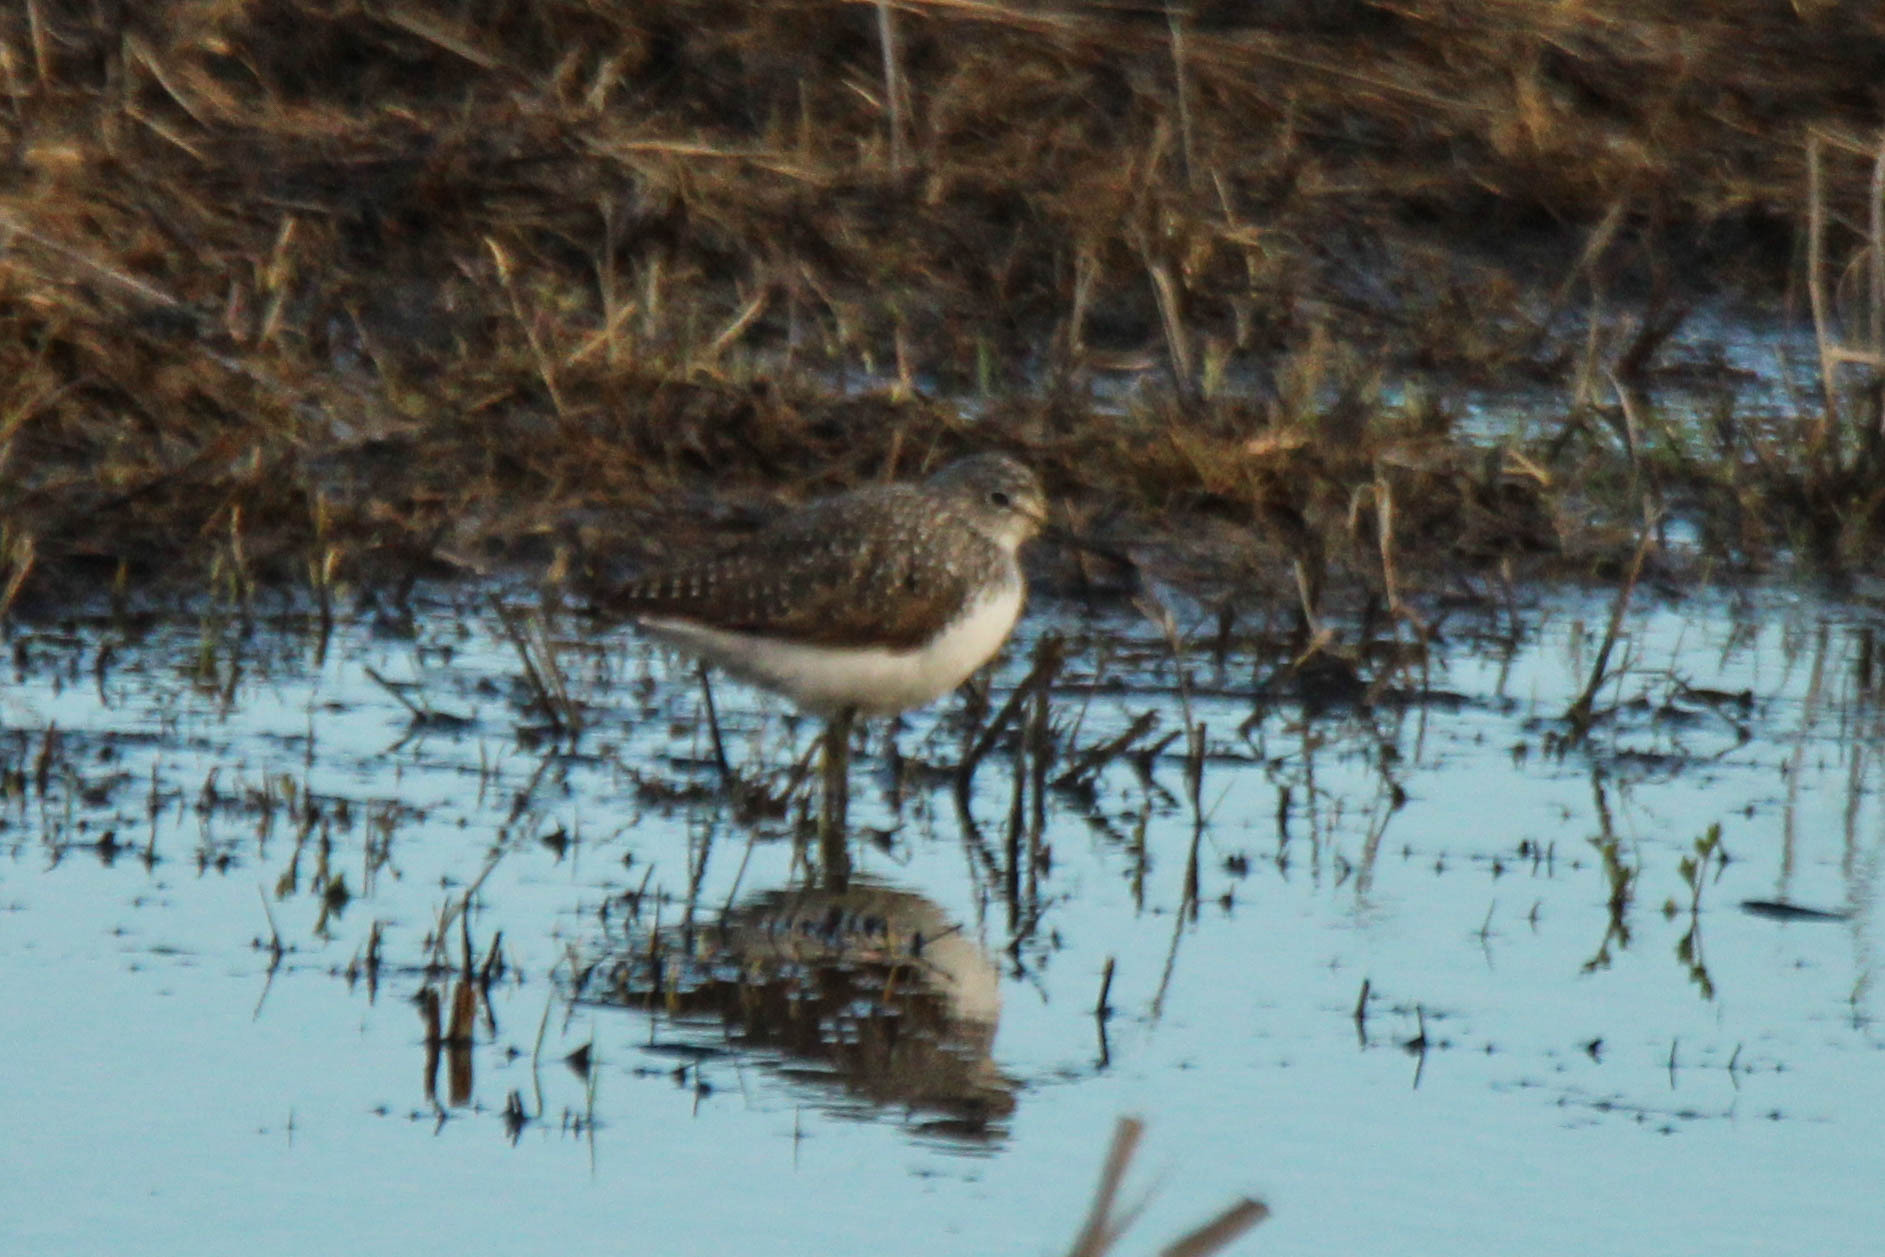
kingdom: Animalia
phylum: Chordata
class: Aves
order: Charadriiformes
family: Scolopacidae
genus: Tringa
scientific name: Tringa ochropus
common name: Green sandpiper
